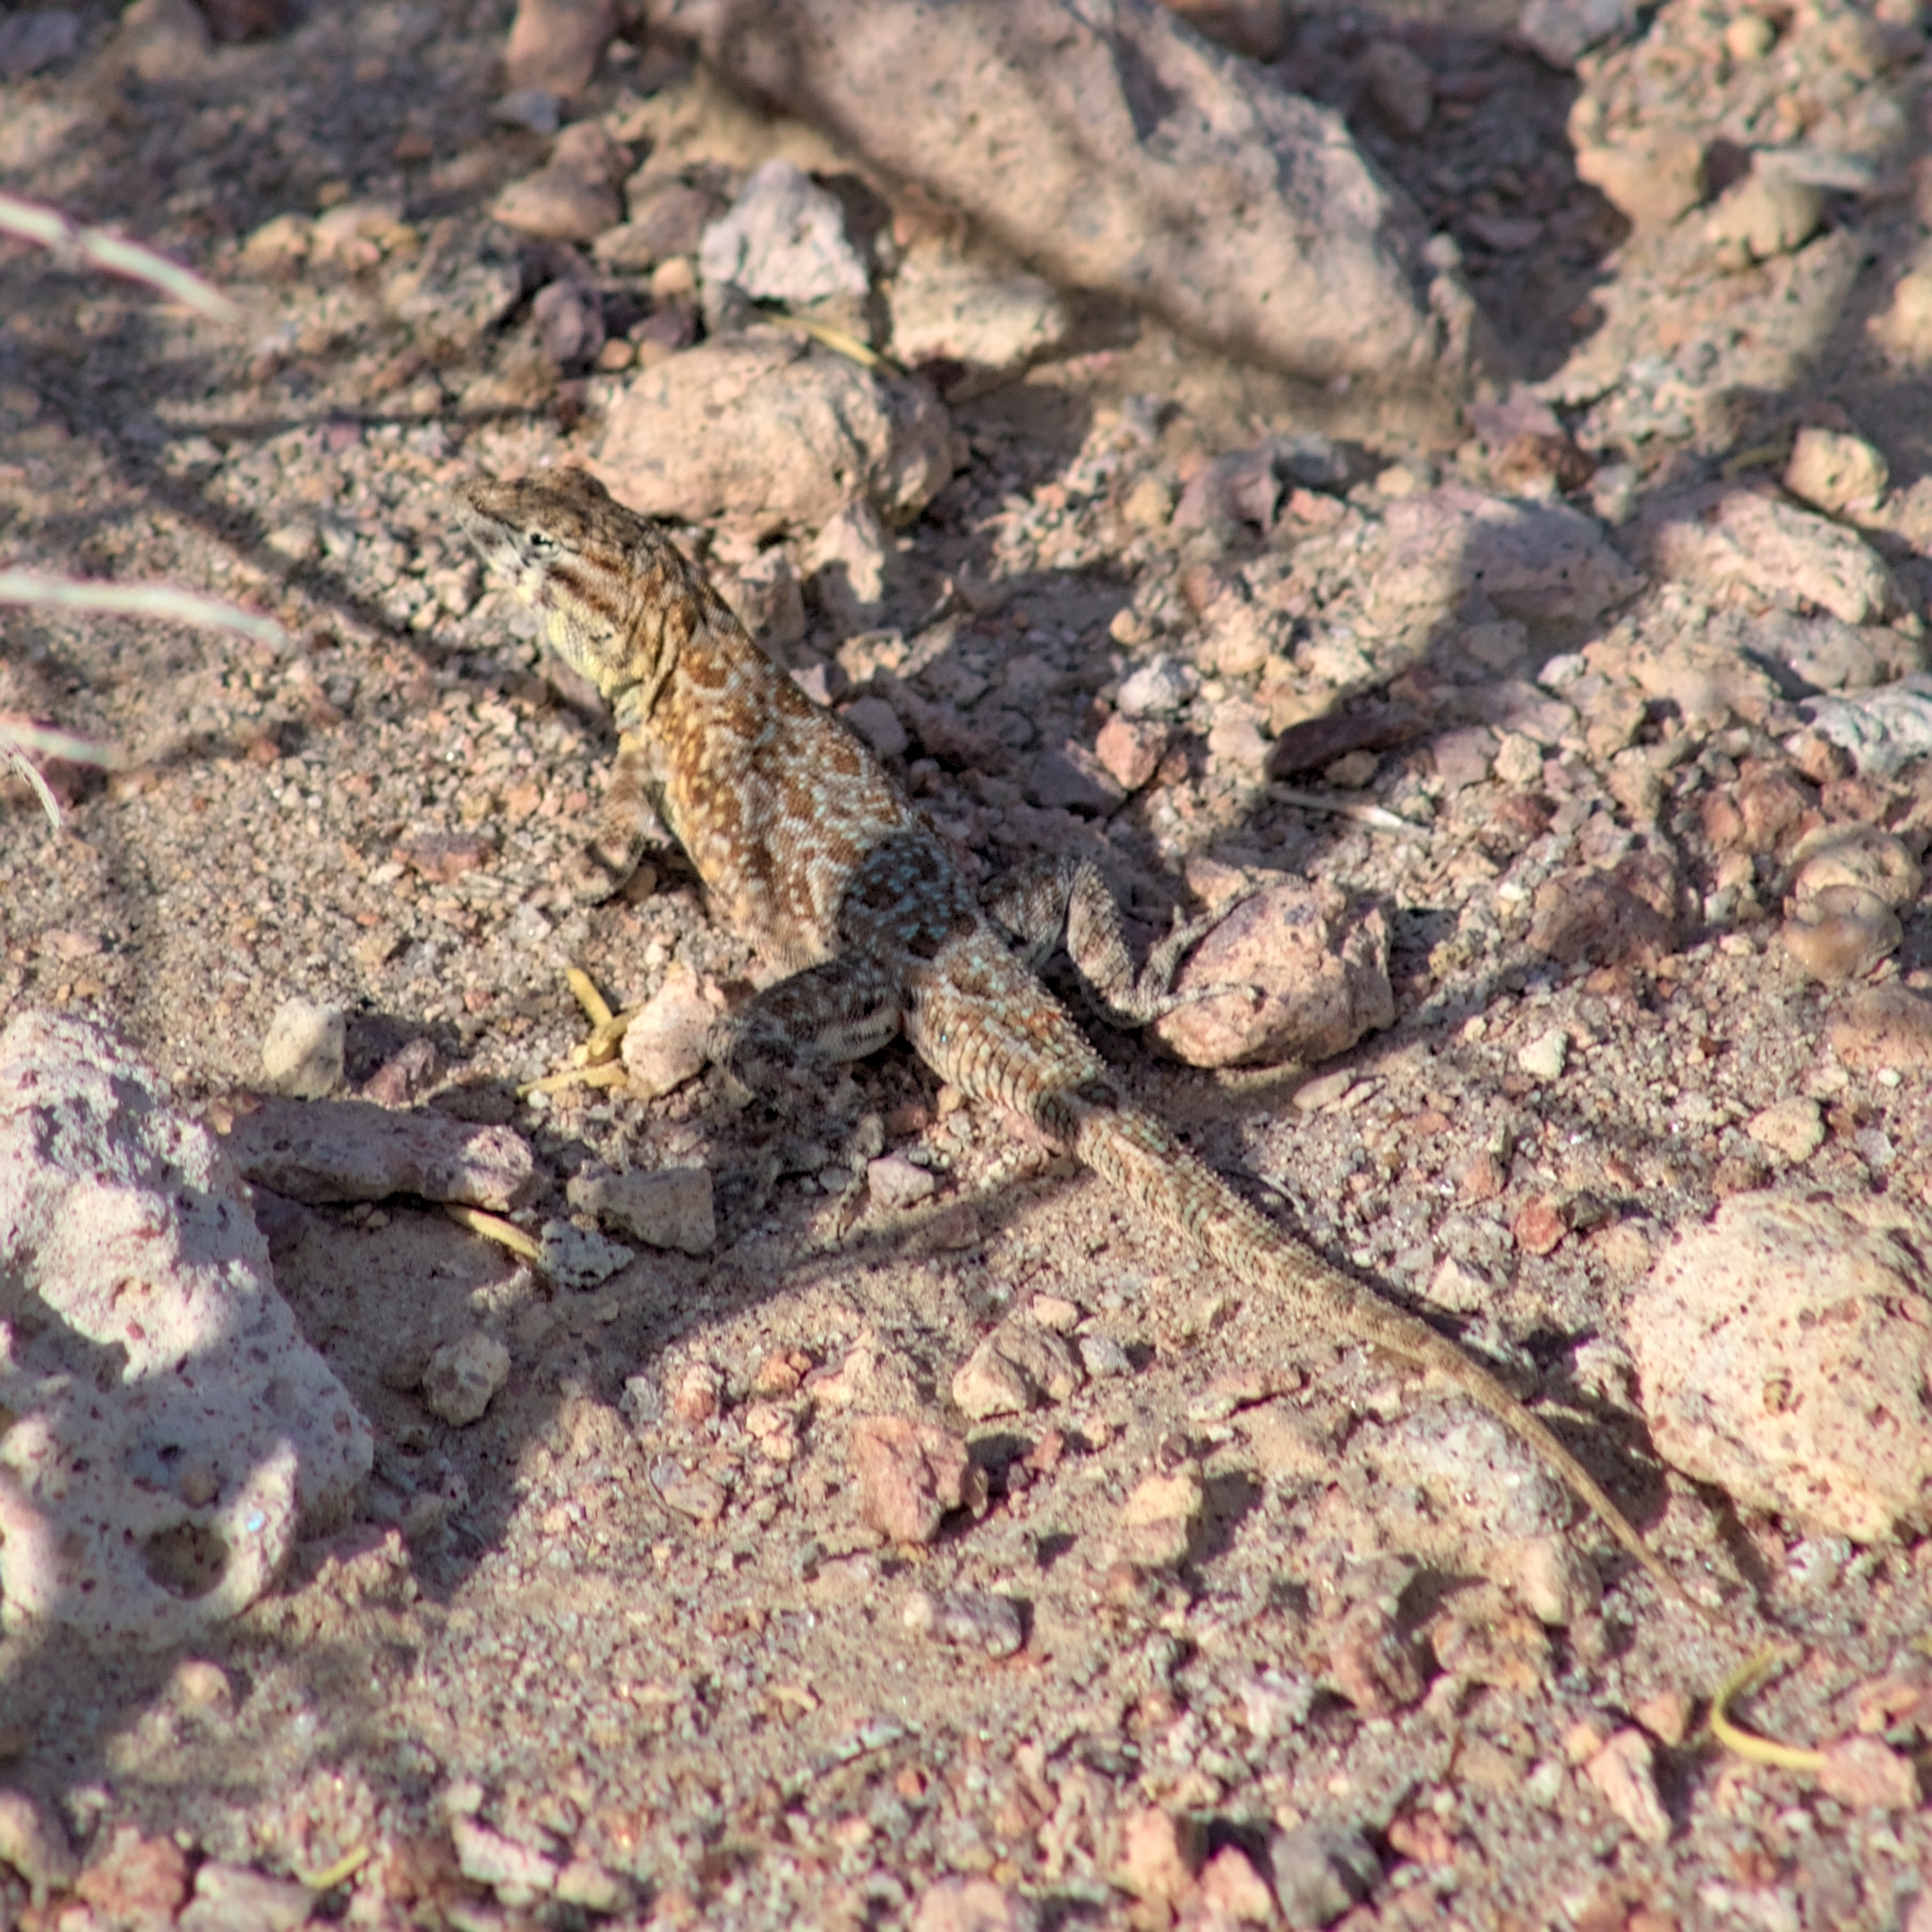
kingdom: Animalia
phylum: Chordata
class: Squamata
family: Phrynosomatidae
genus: Uta
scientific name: Uta stansburiana
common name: Side-blotched lizard
